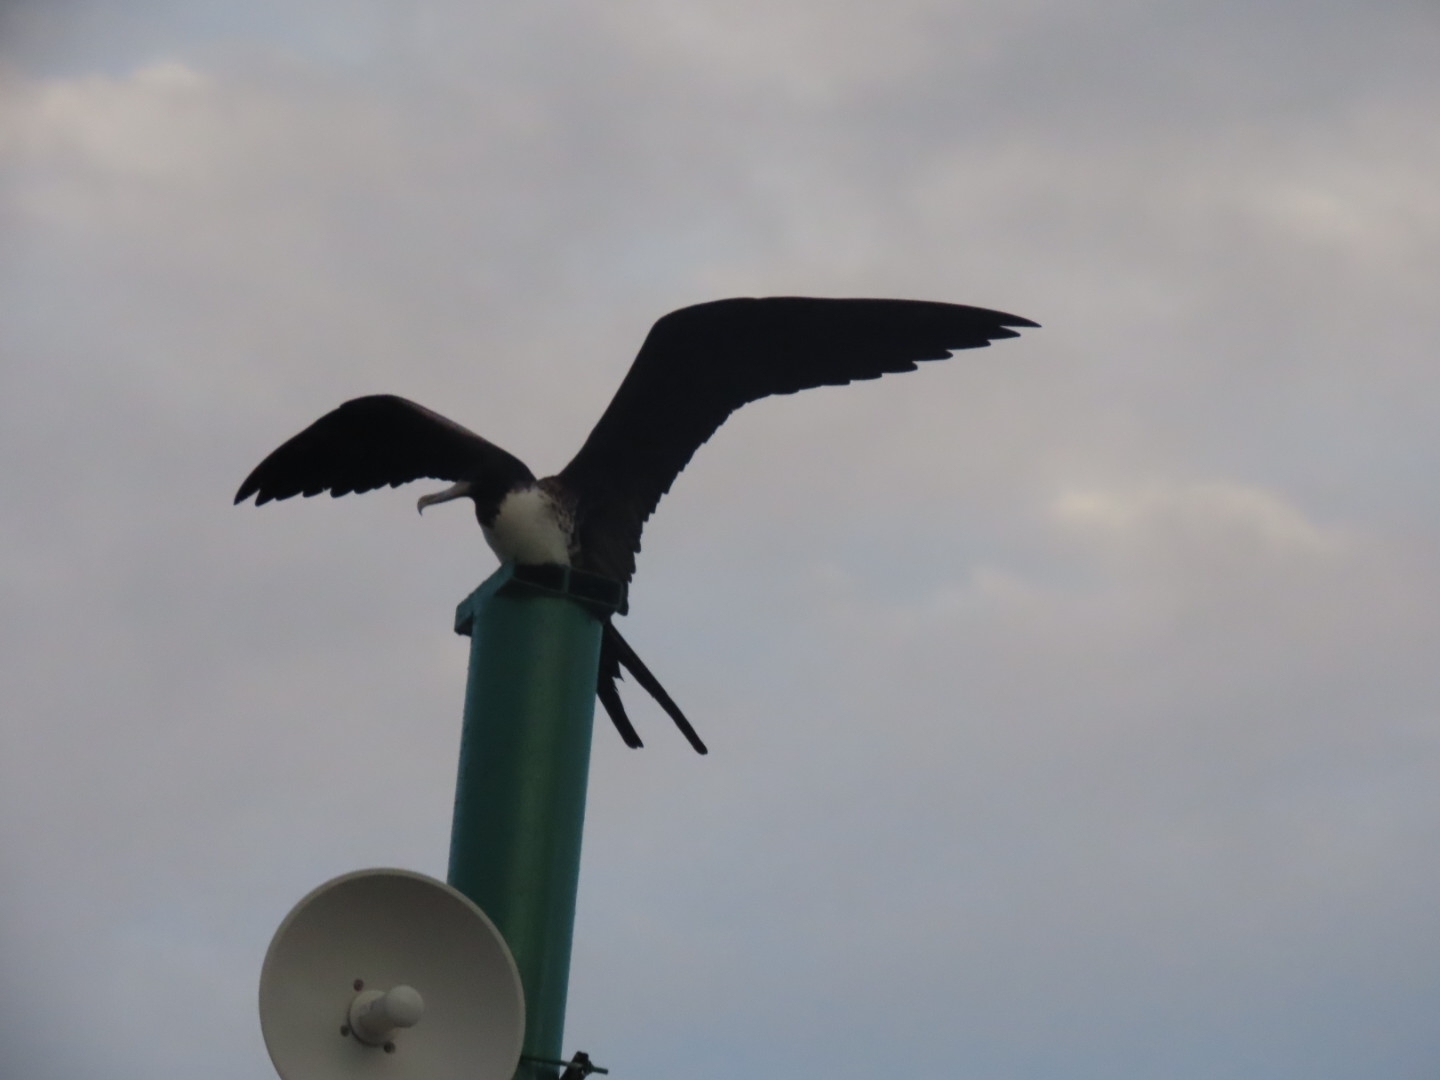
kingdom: Animalia
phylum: Chordata
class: Aves
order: Suliformes
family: Fregatidae
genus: Fregata
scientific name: Fregata magnificens
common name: Magnificent frigatebird
